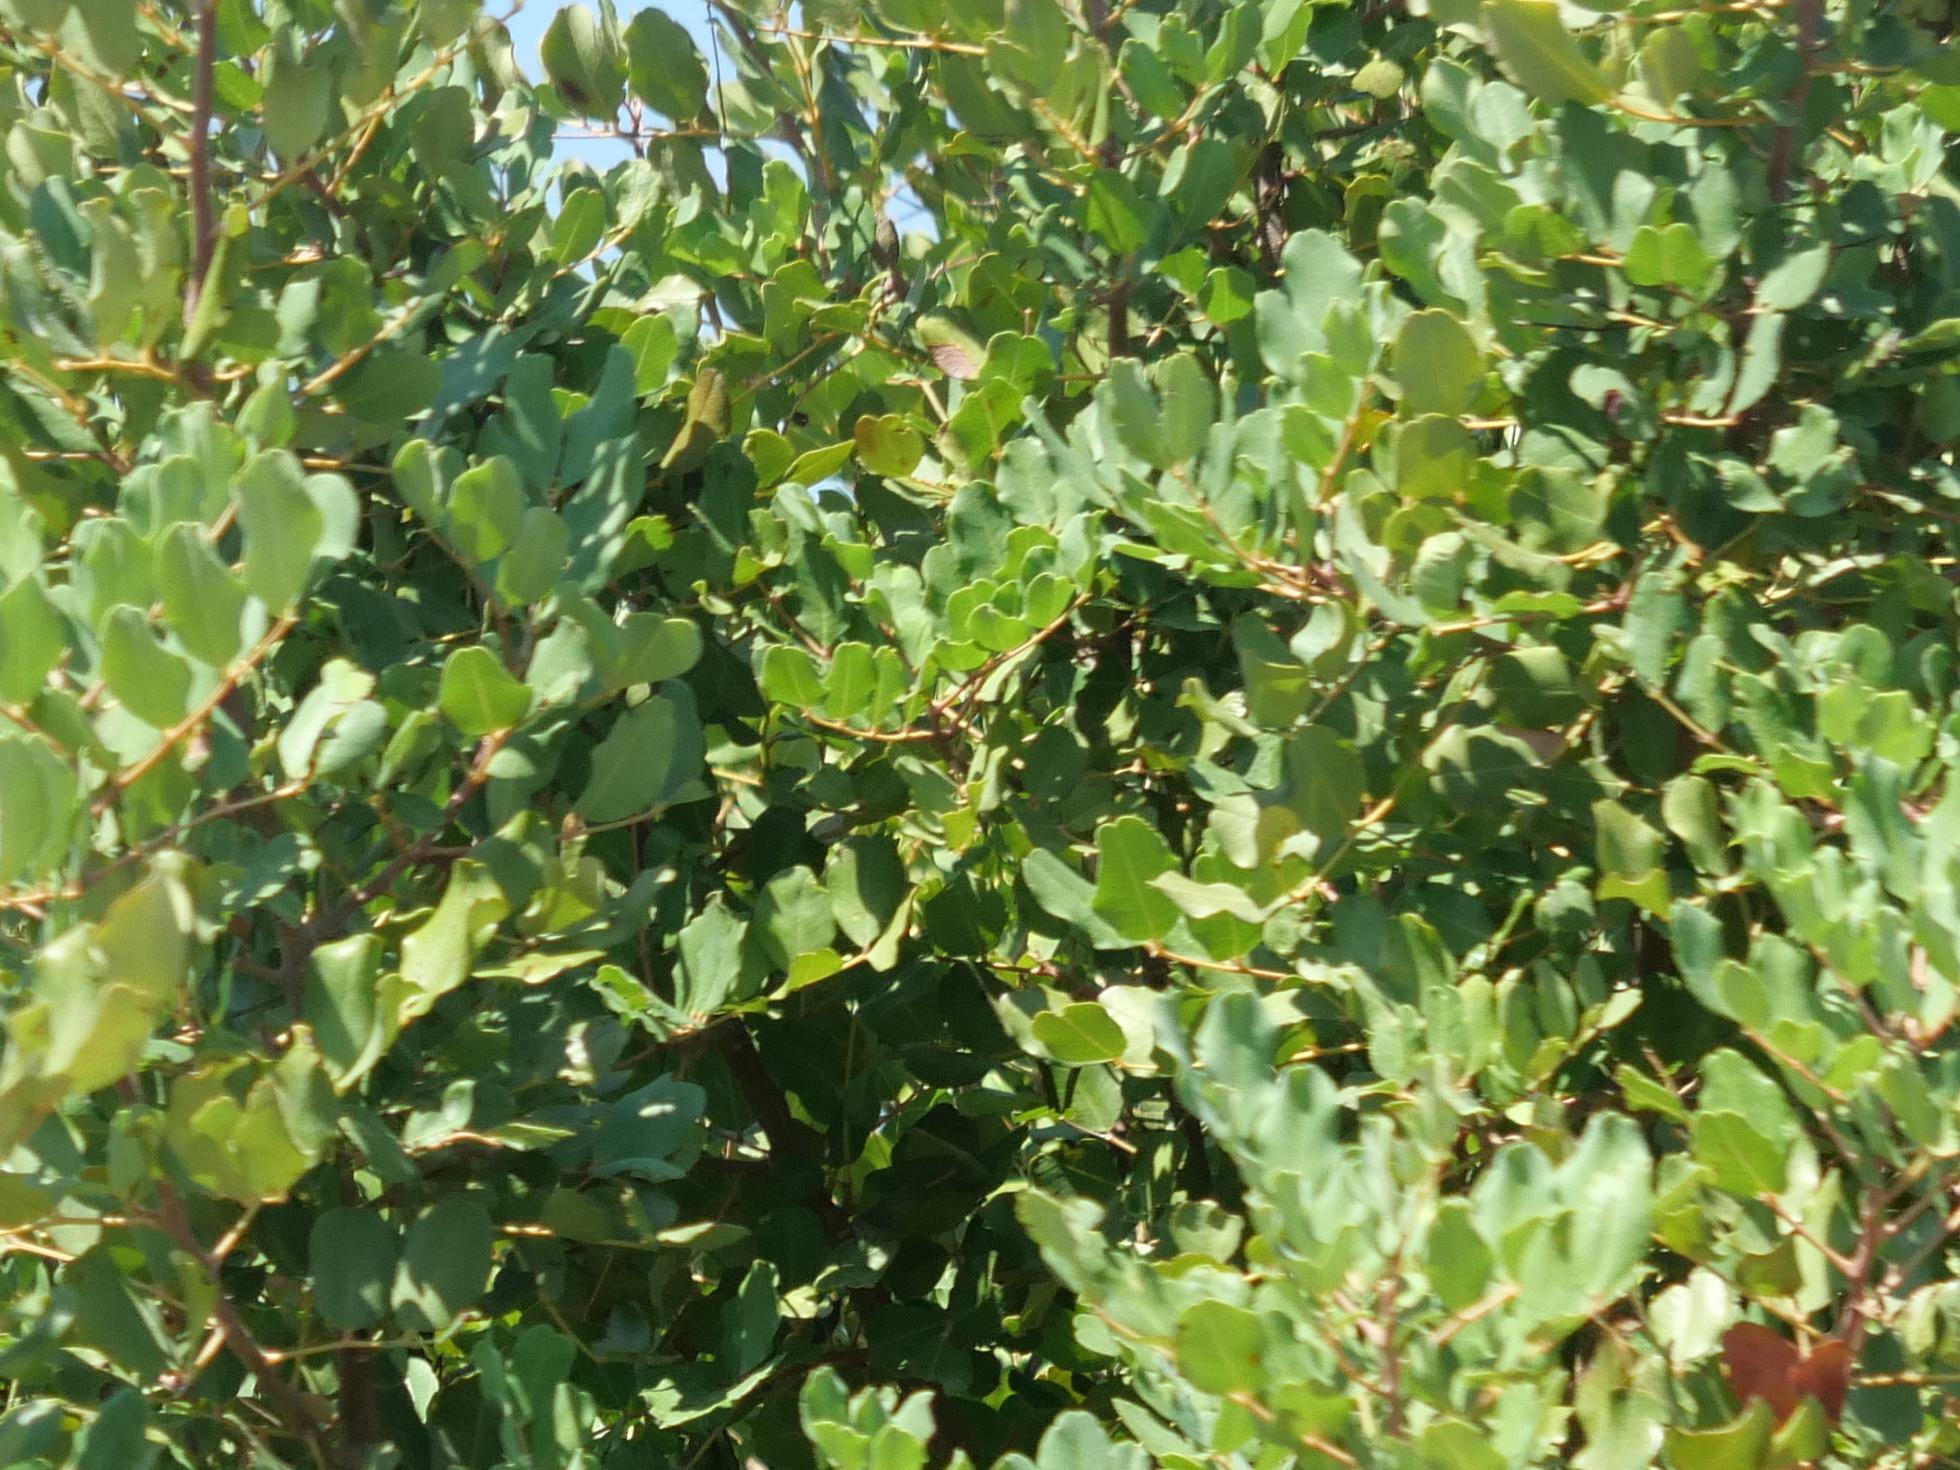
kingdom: Plantae
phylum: Tracheophyta
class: Magnoliopsida
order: Fabales
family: Fabaceae
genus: Ceratonia
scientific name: Ceratonia siliqua
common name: Carob
